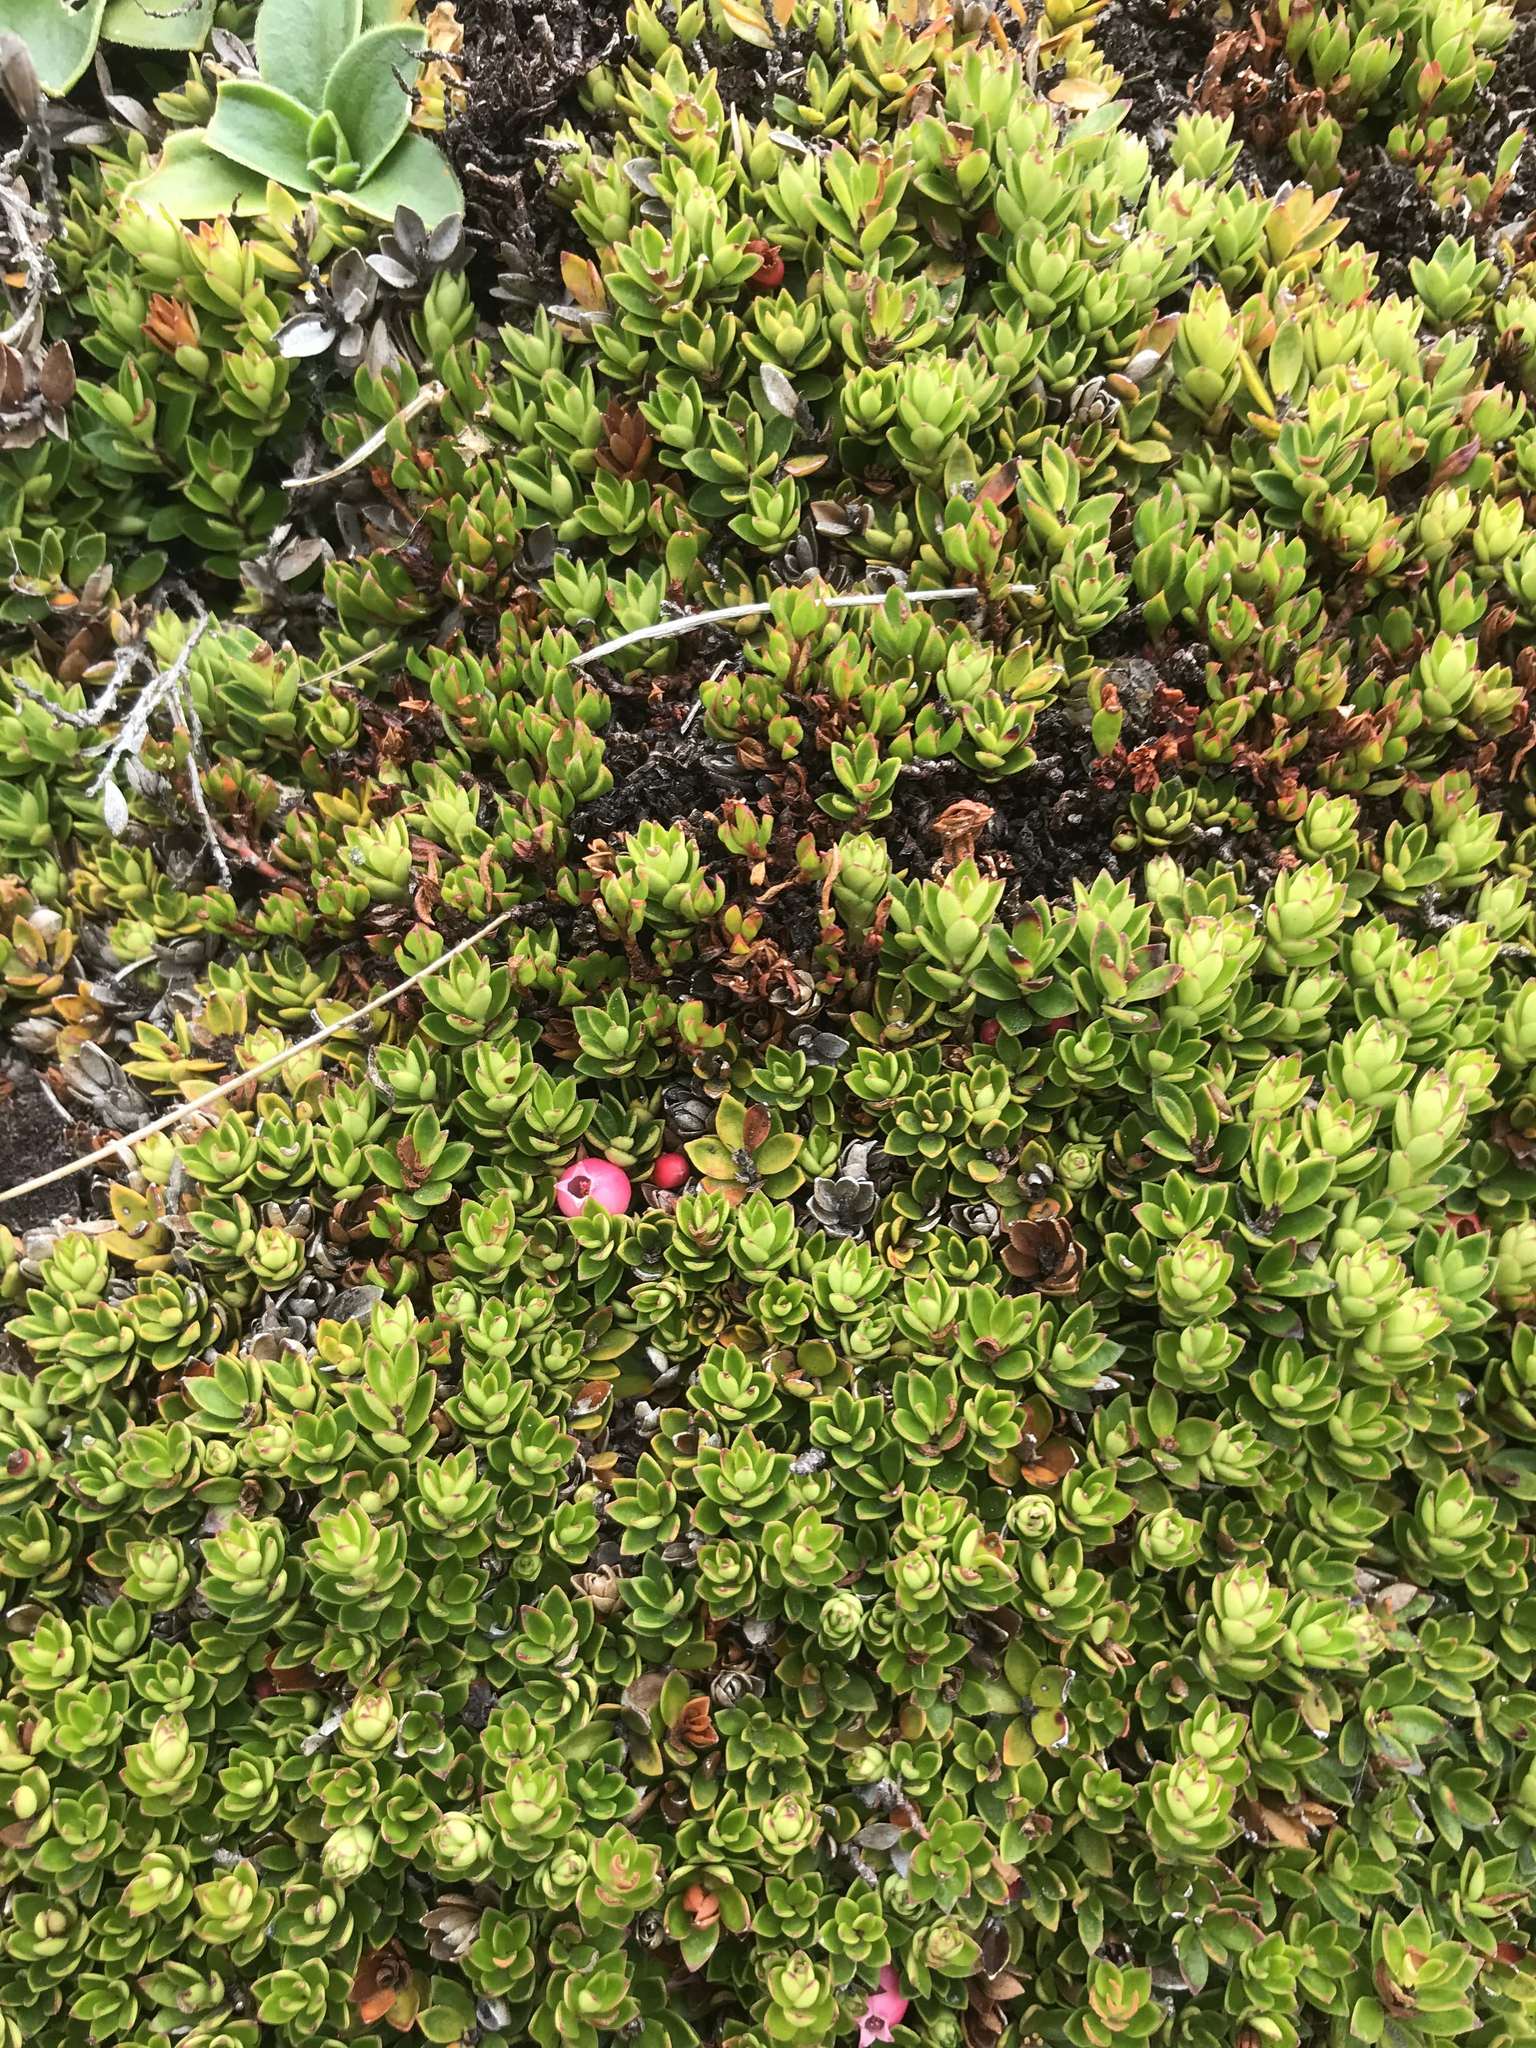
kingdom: Plantae
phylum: Tracheophyta
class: Magnoliopsida
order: Ericales
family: Ericaceae
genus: Disterigma
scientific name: Disterigma empetrifolium
